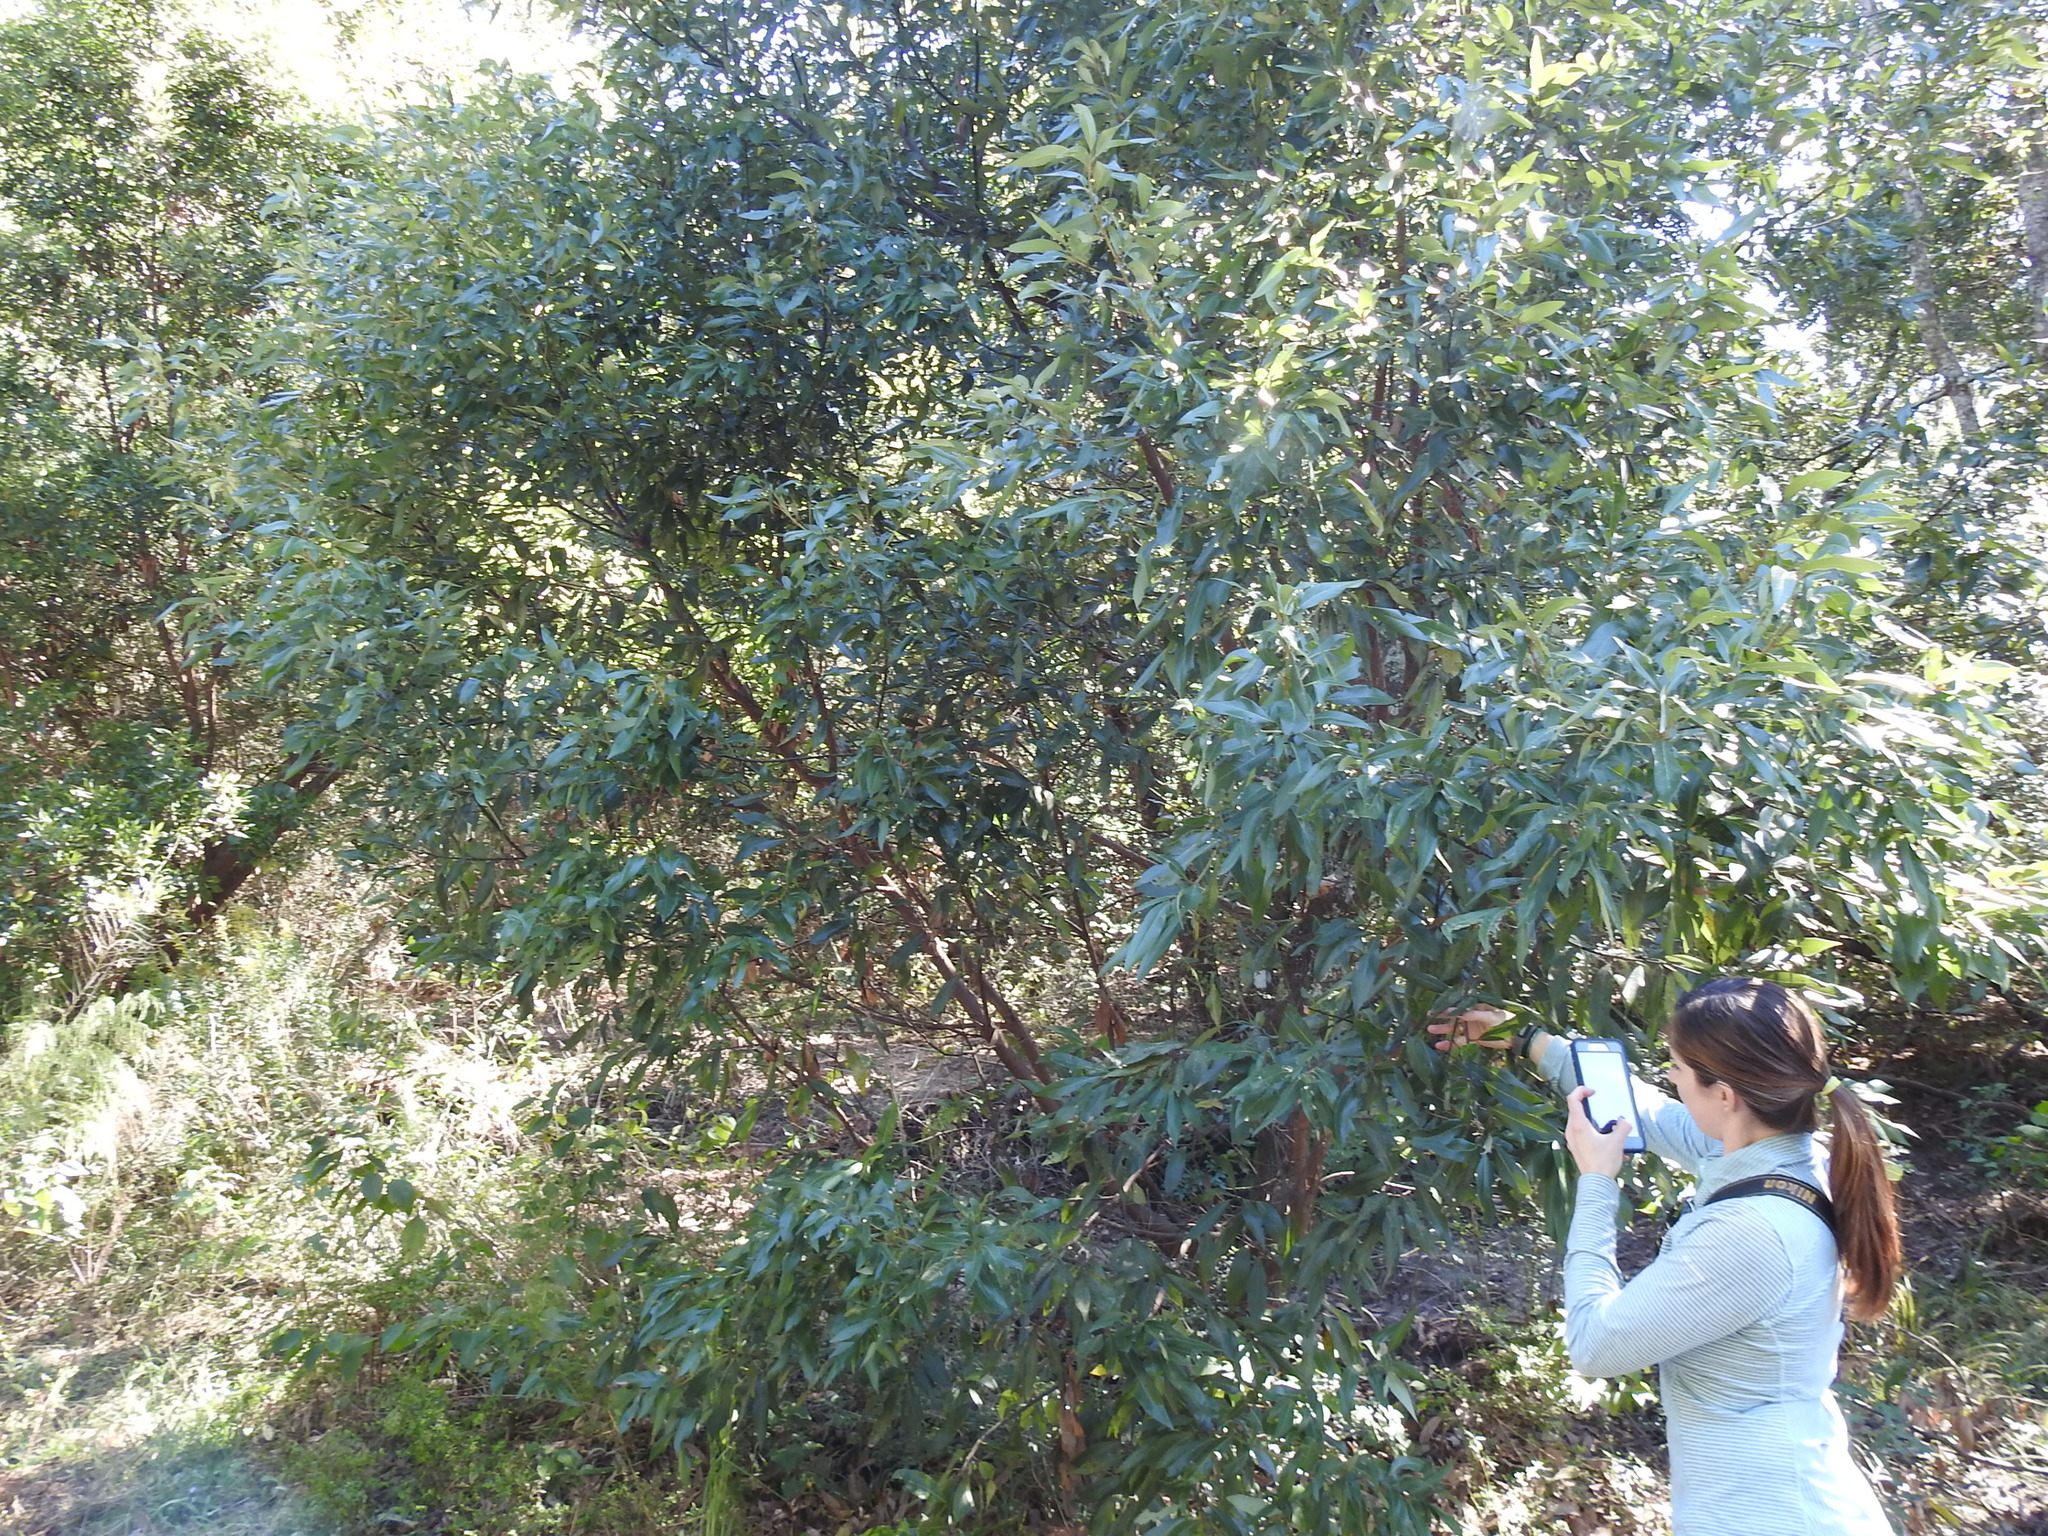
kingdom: Plantae
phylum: Tracheophyta
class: Magnoliopsida
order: Laurales
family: Lauraceae
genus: Persea
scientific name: Persea borbonia
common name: Redbay
